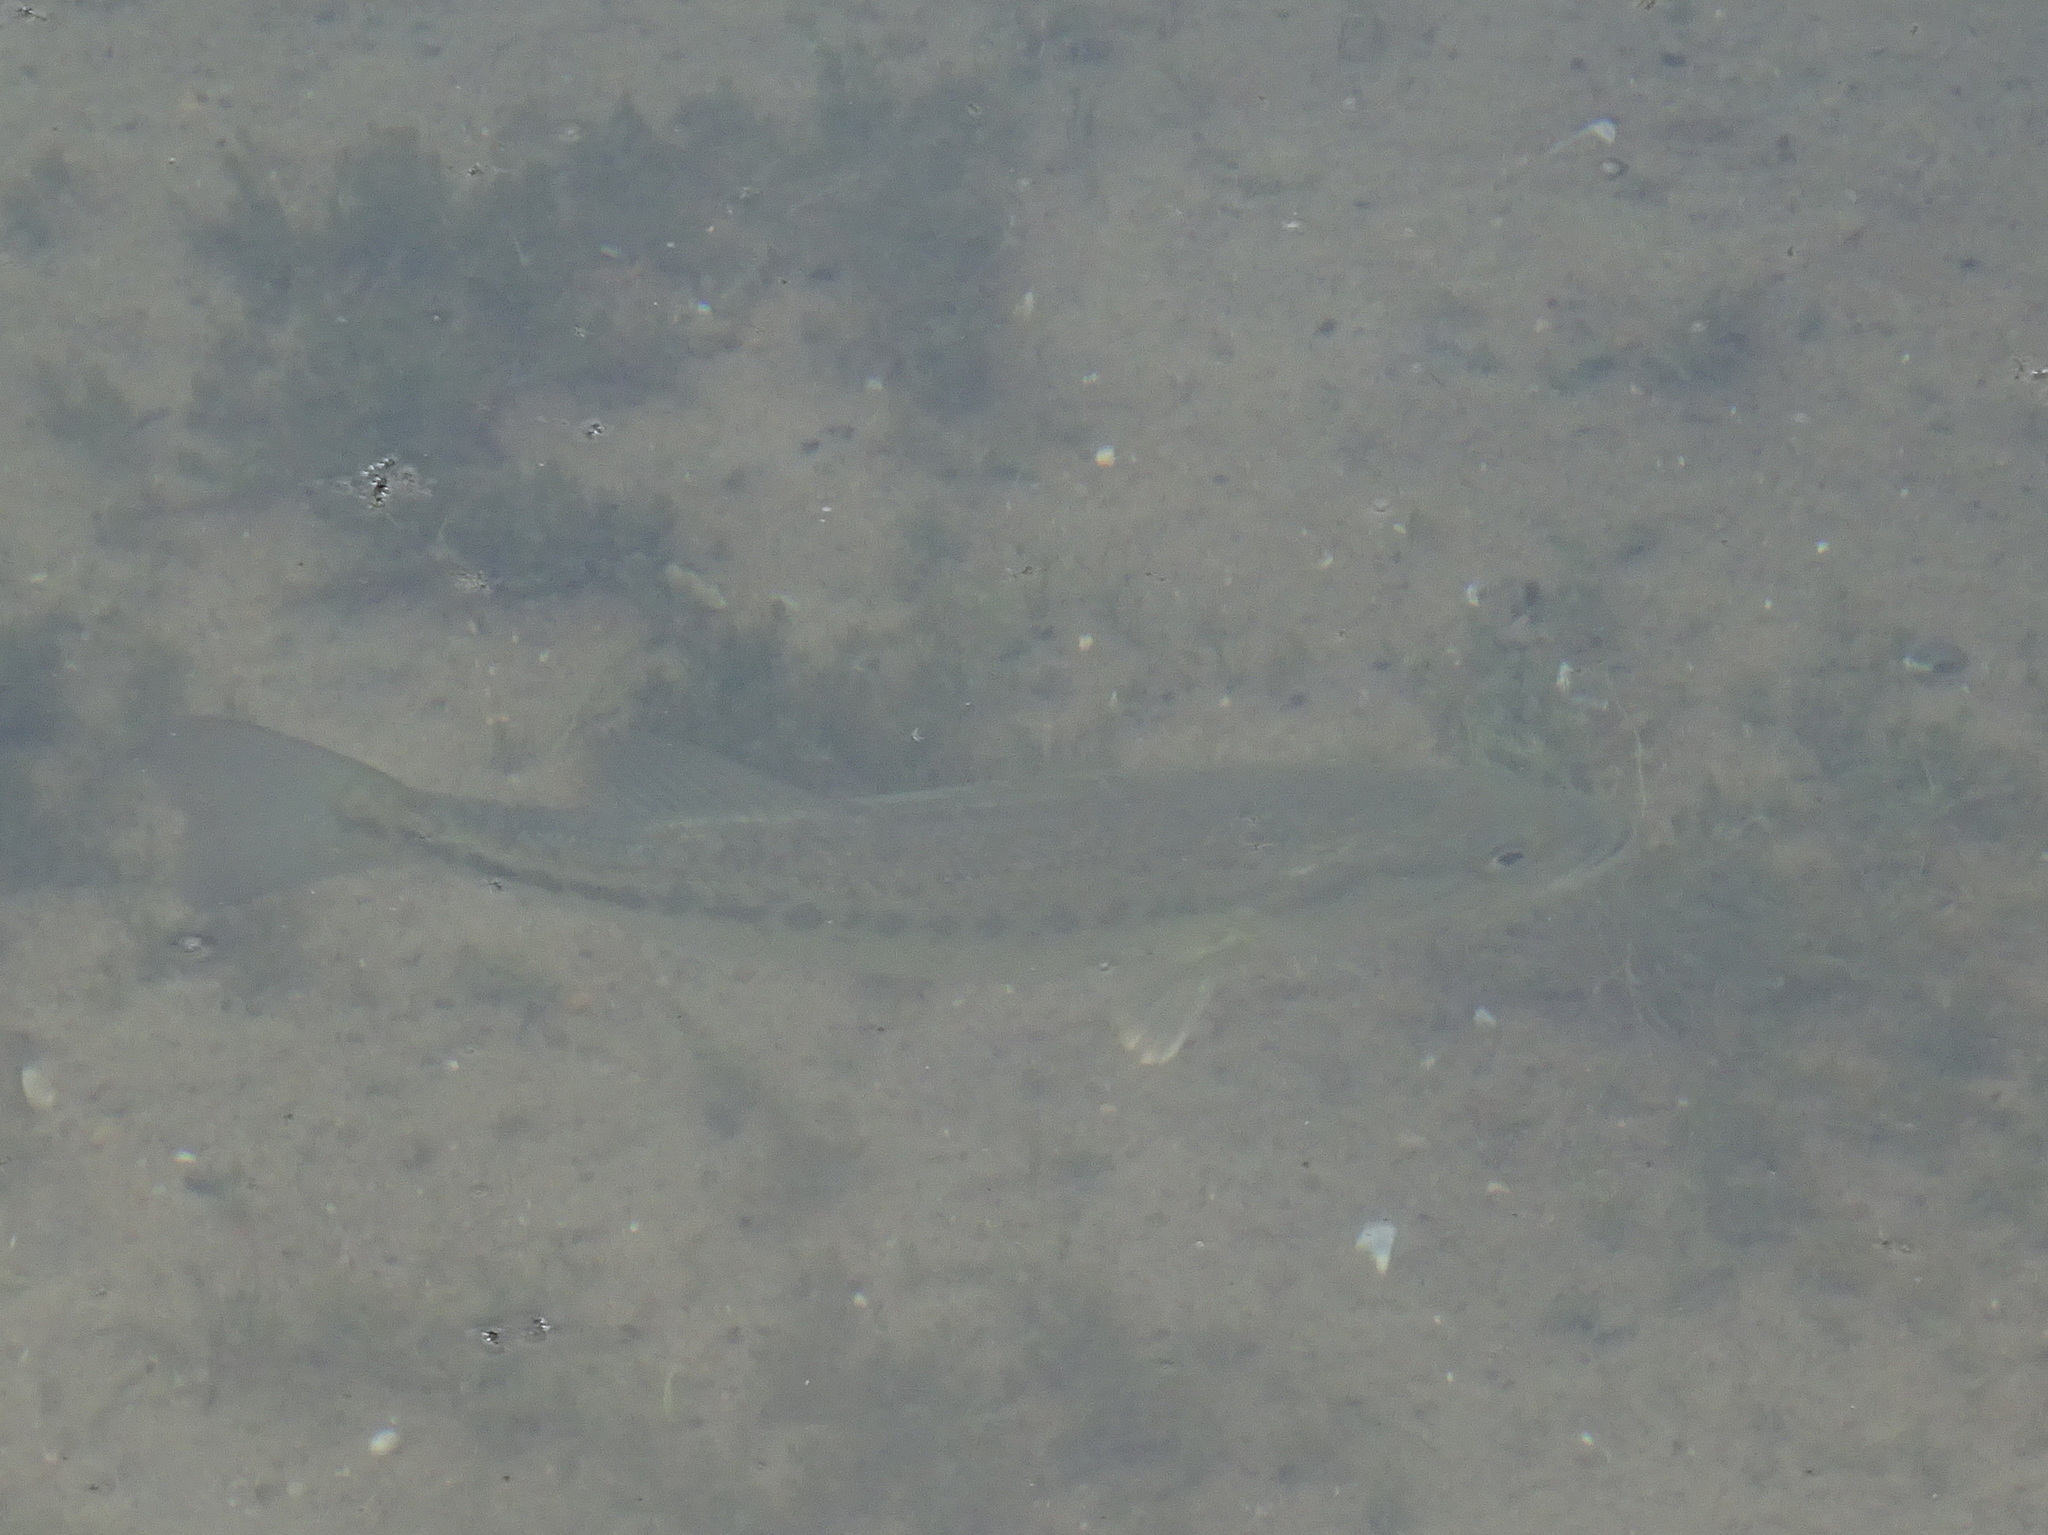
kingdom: Animalia
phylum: Chordata
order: Perciformes
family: Centrarchidae
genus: Micropterus
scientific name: Micropterus
